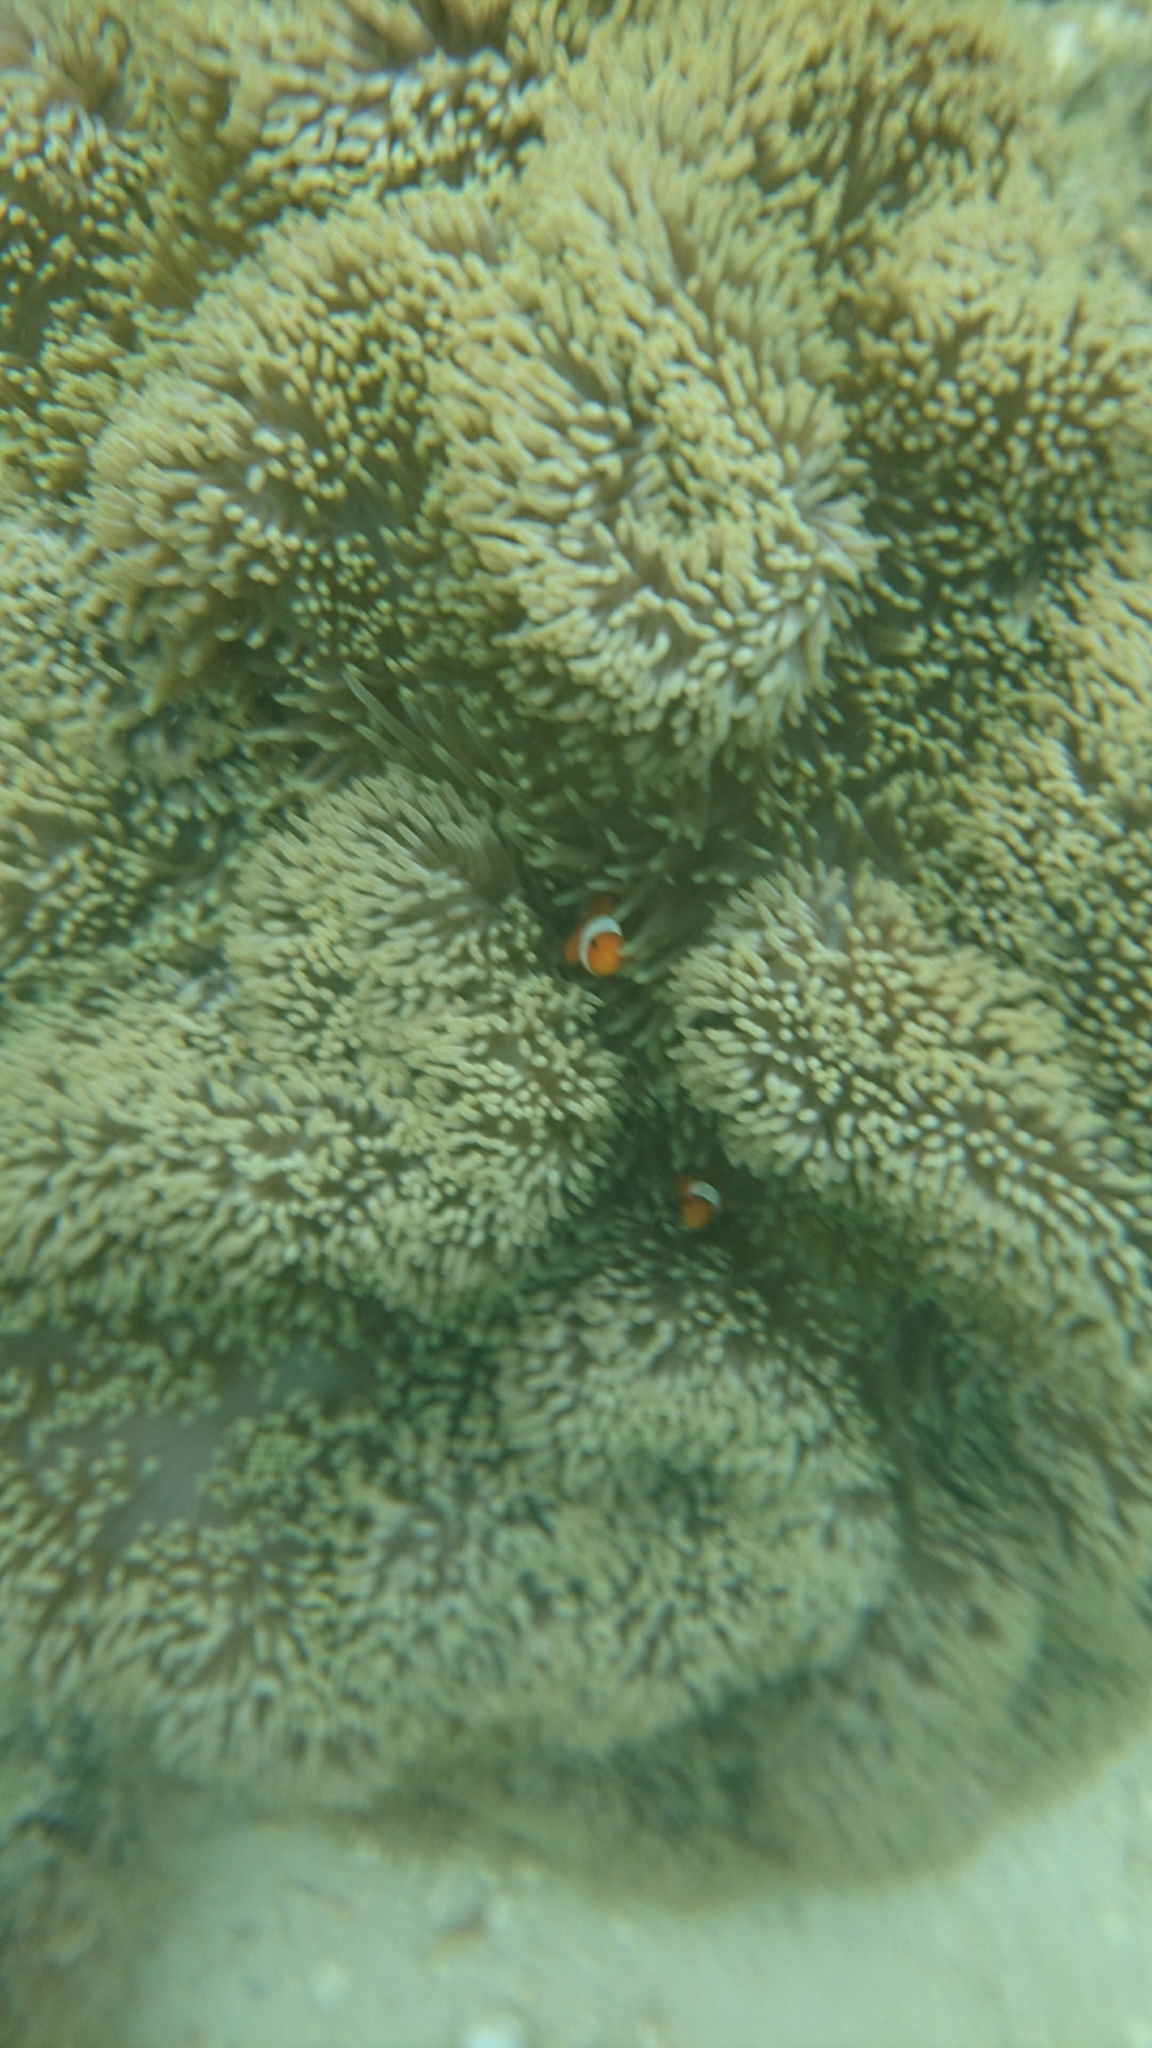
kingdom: Animalia
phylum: Chordata
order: Perciformes
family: Pomacentridae
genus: Amphiprion
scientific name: Amphiprion ocellaris
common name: Clown anemonefish
